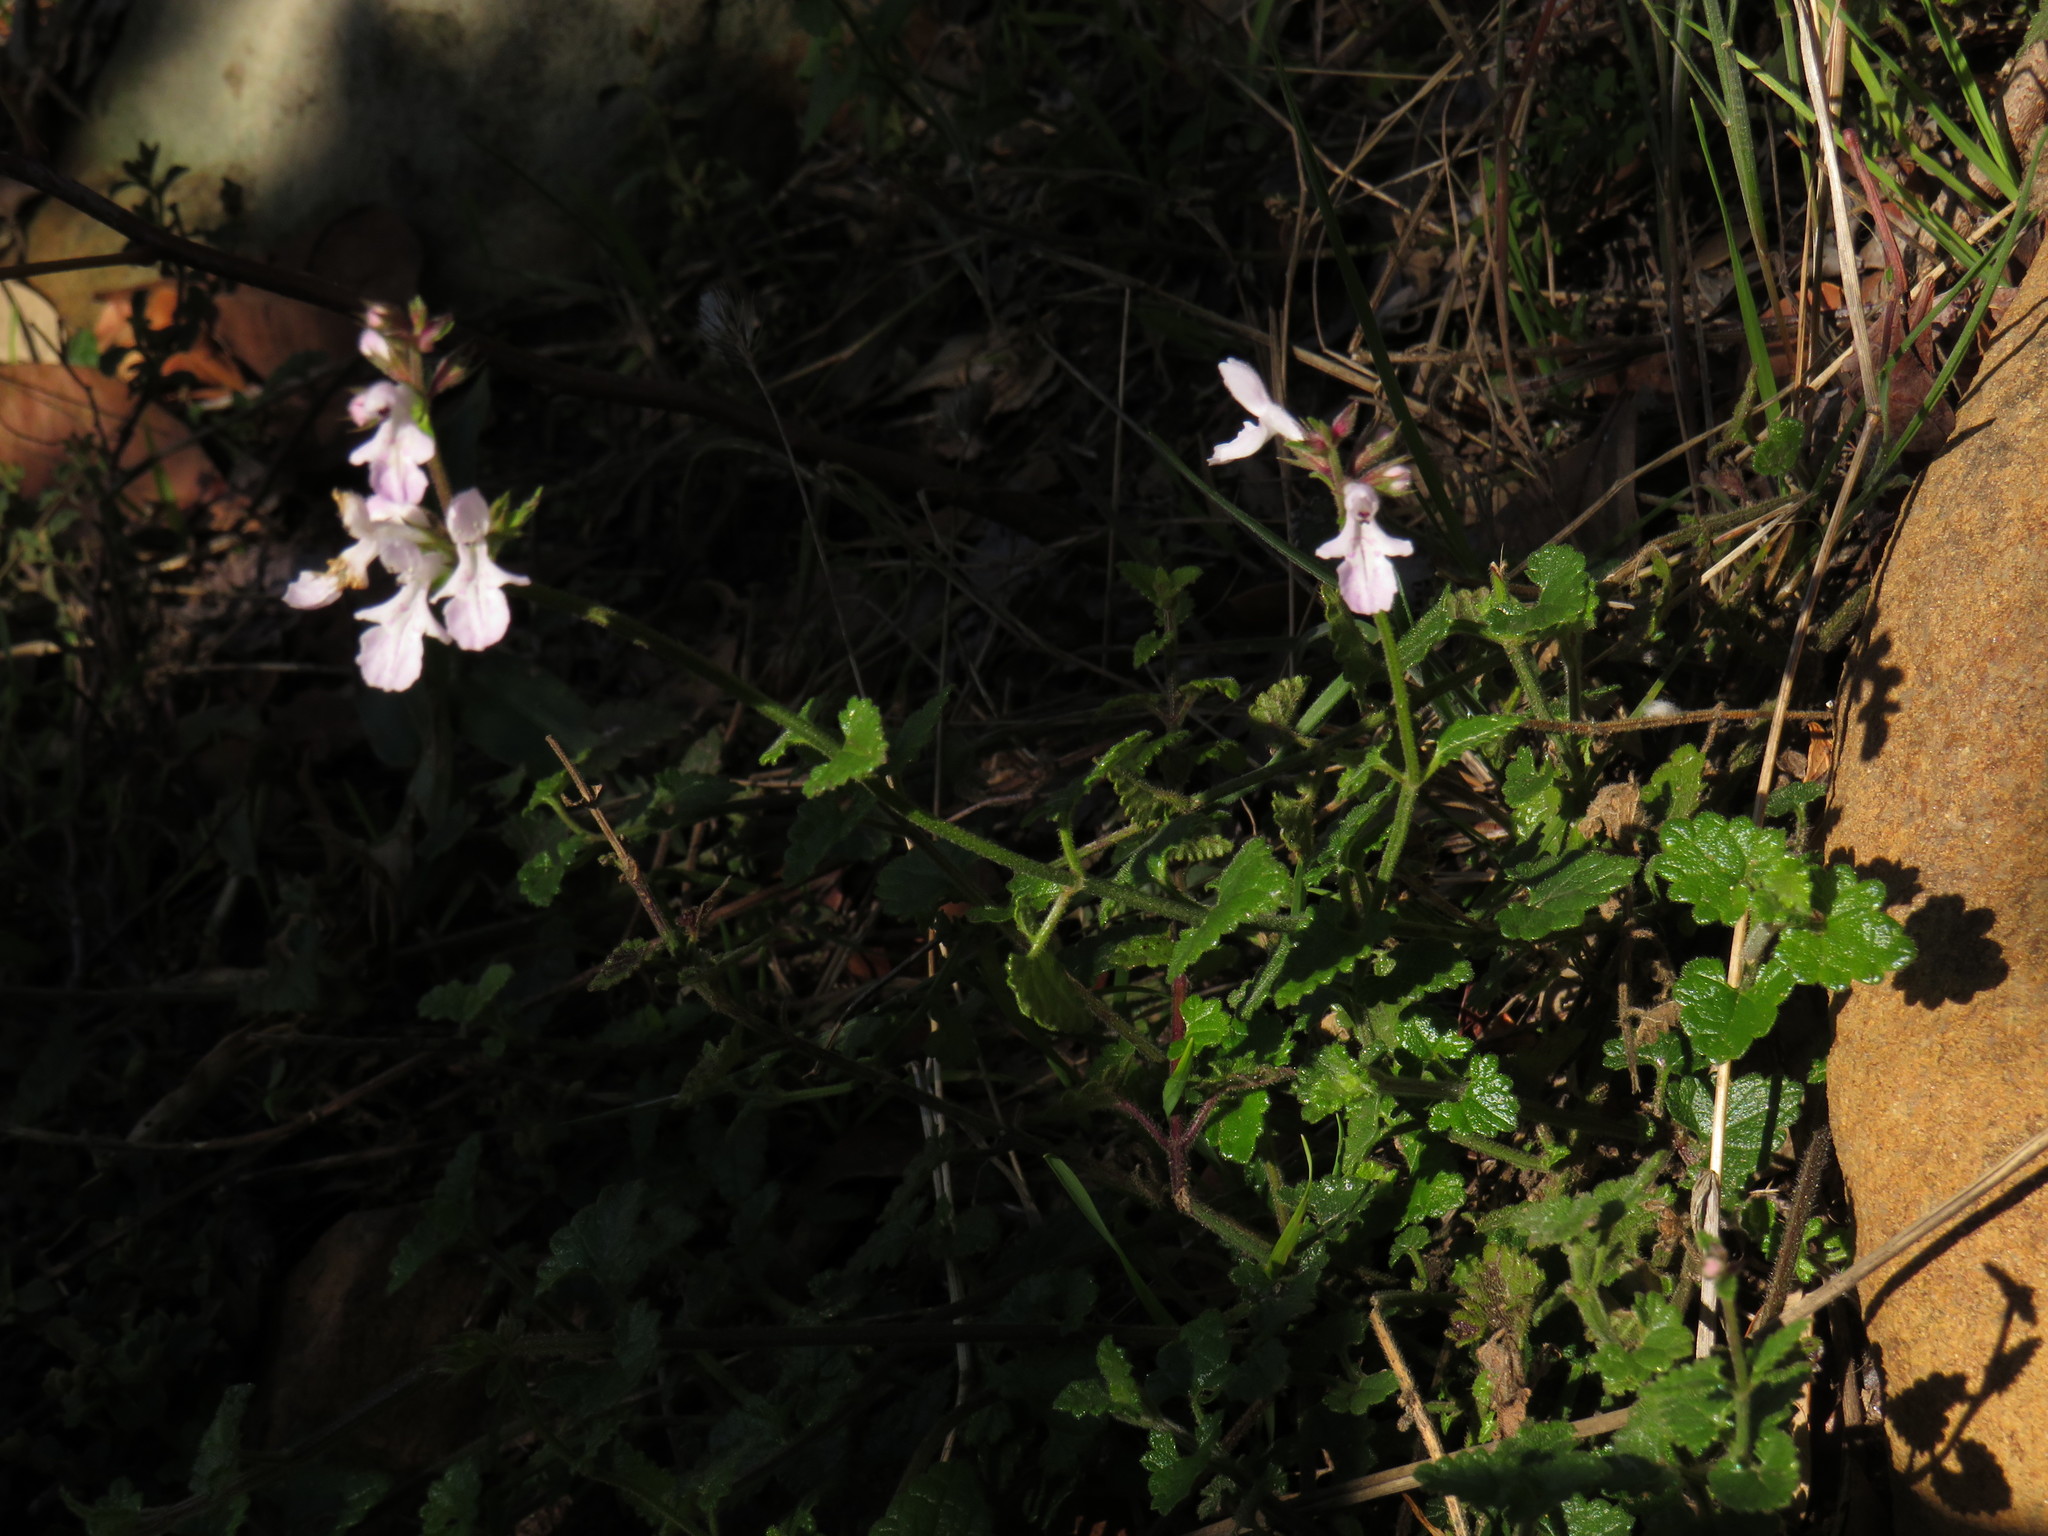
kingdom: Plantae
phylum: Tracheophyta
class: Magnoliopsida
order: Lamiales
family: Lamiaceae
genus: Stachys
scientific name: Stachys aethiopica
